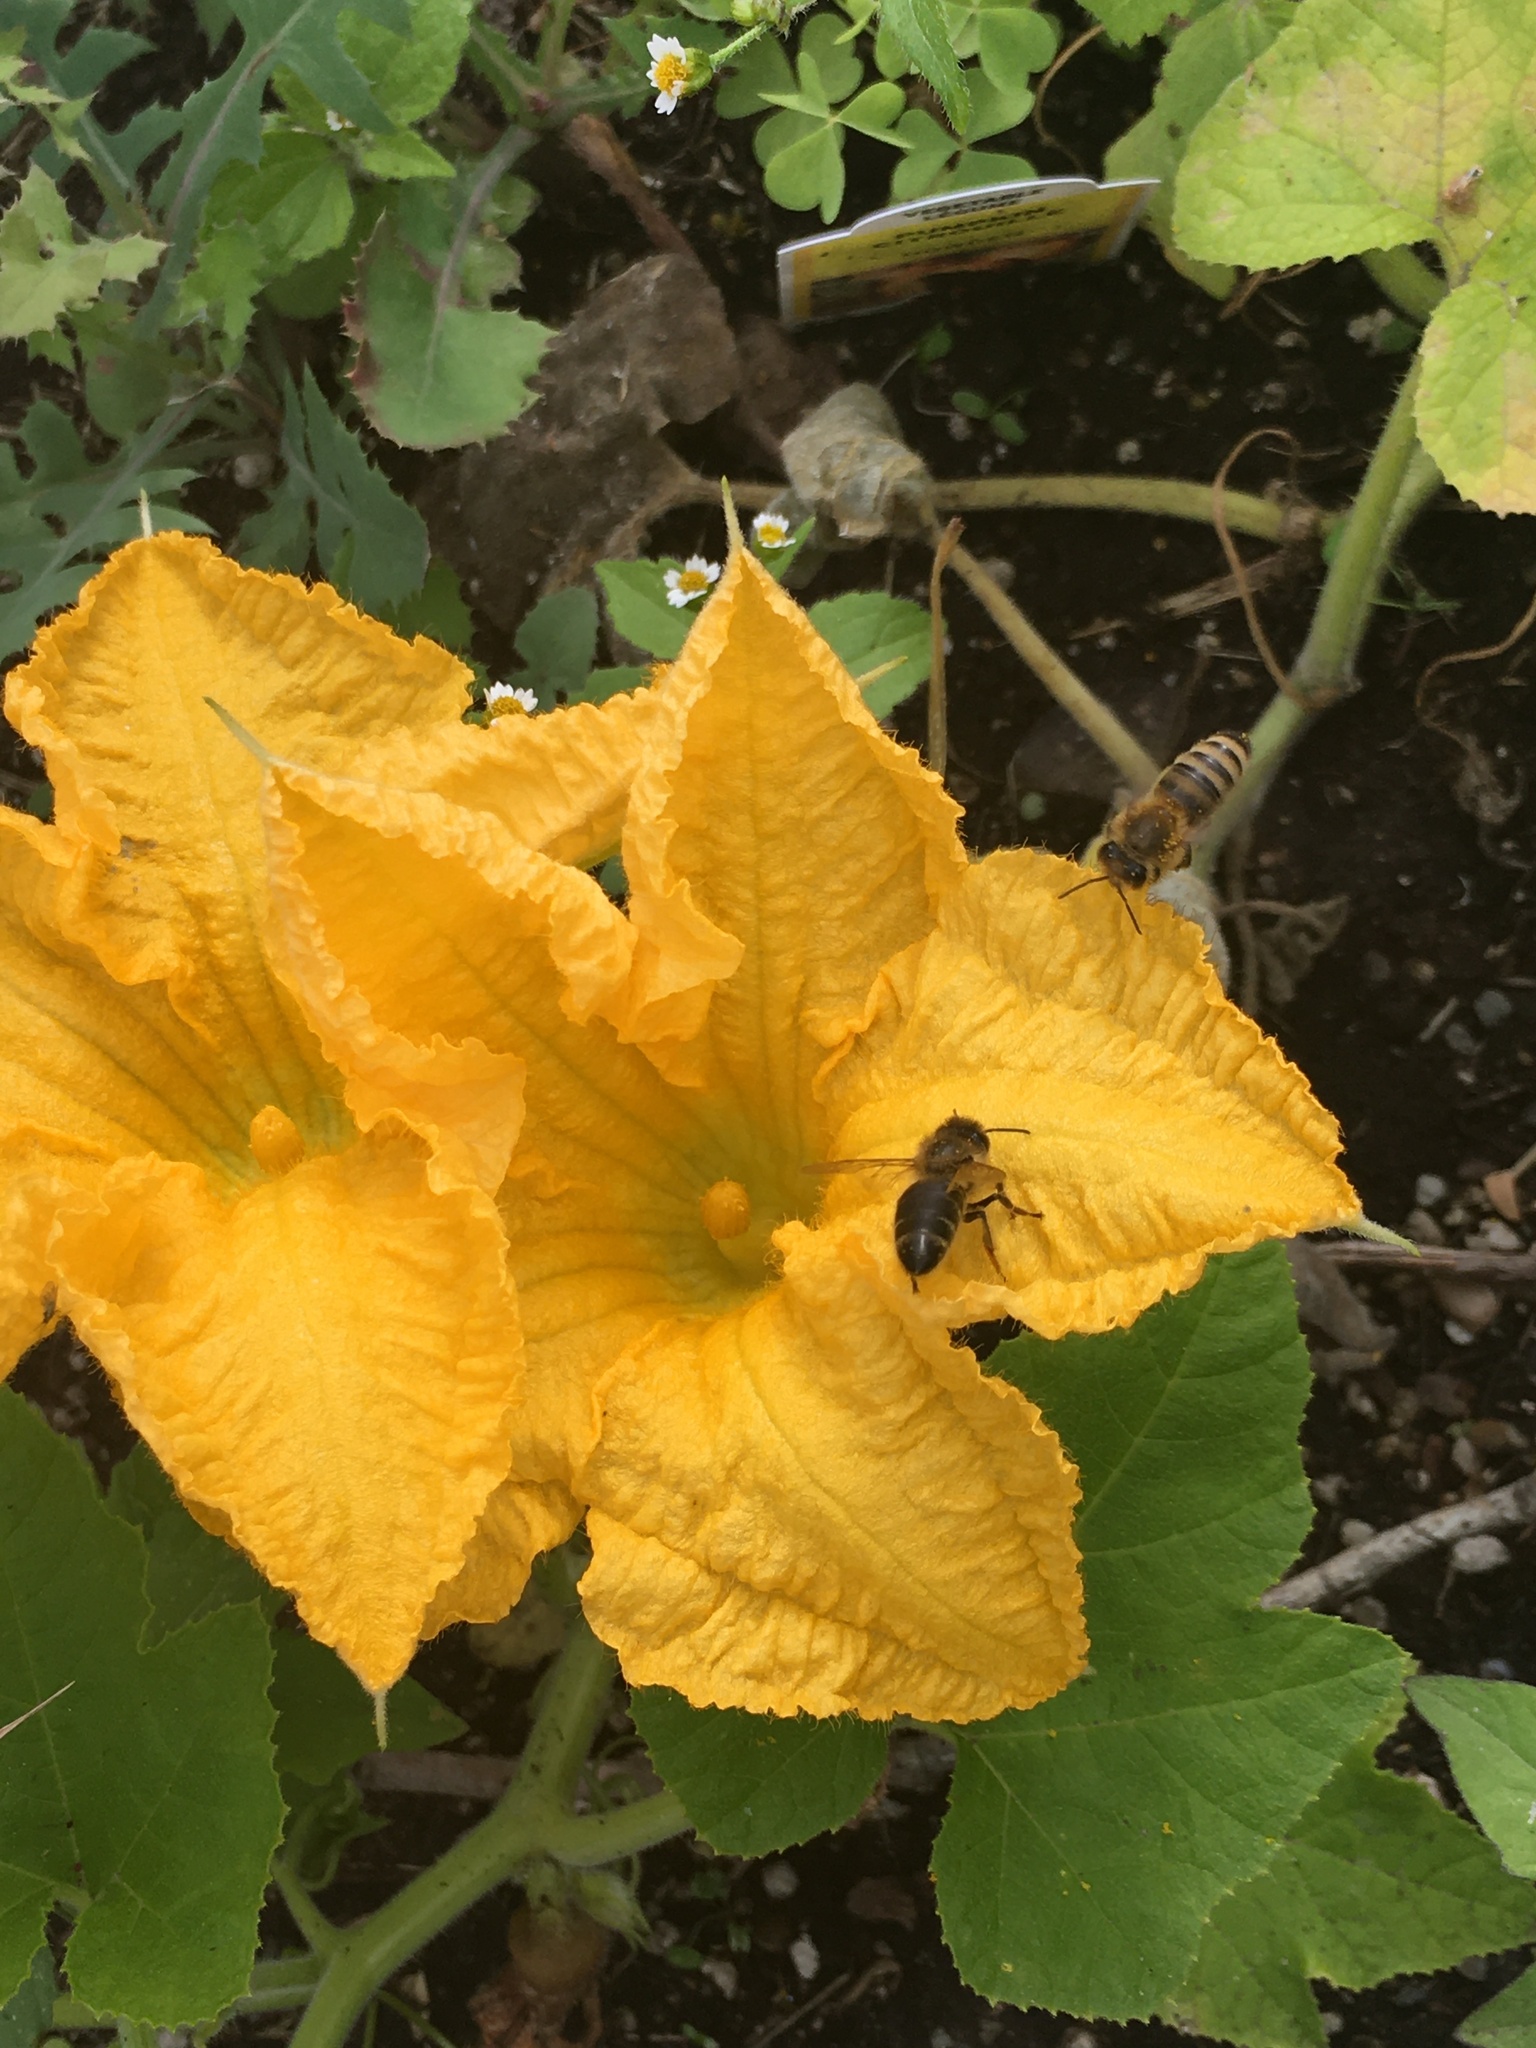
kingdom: Animalia
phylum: Arthropoda
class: Insecta
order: Hymenoptera
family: Apidae
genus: Apis
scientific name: Apis mellifera
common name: Honey bee
